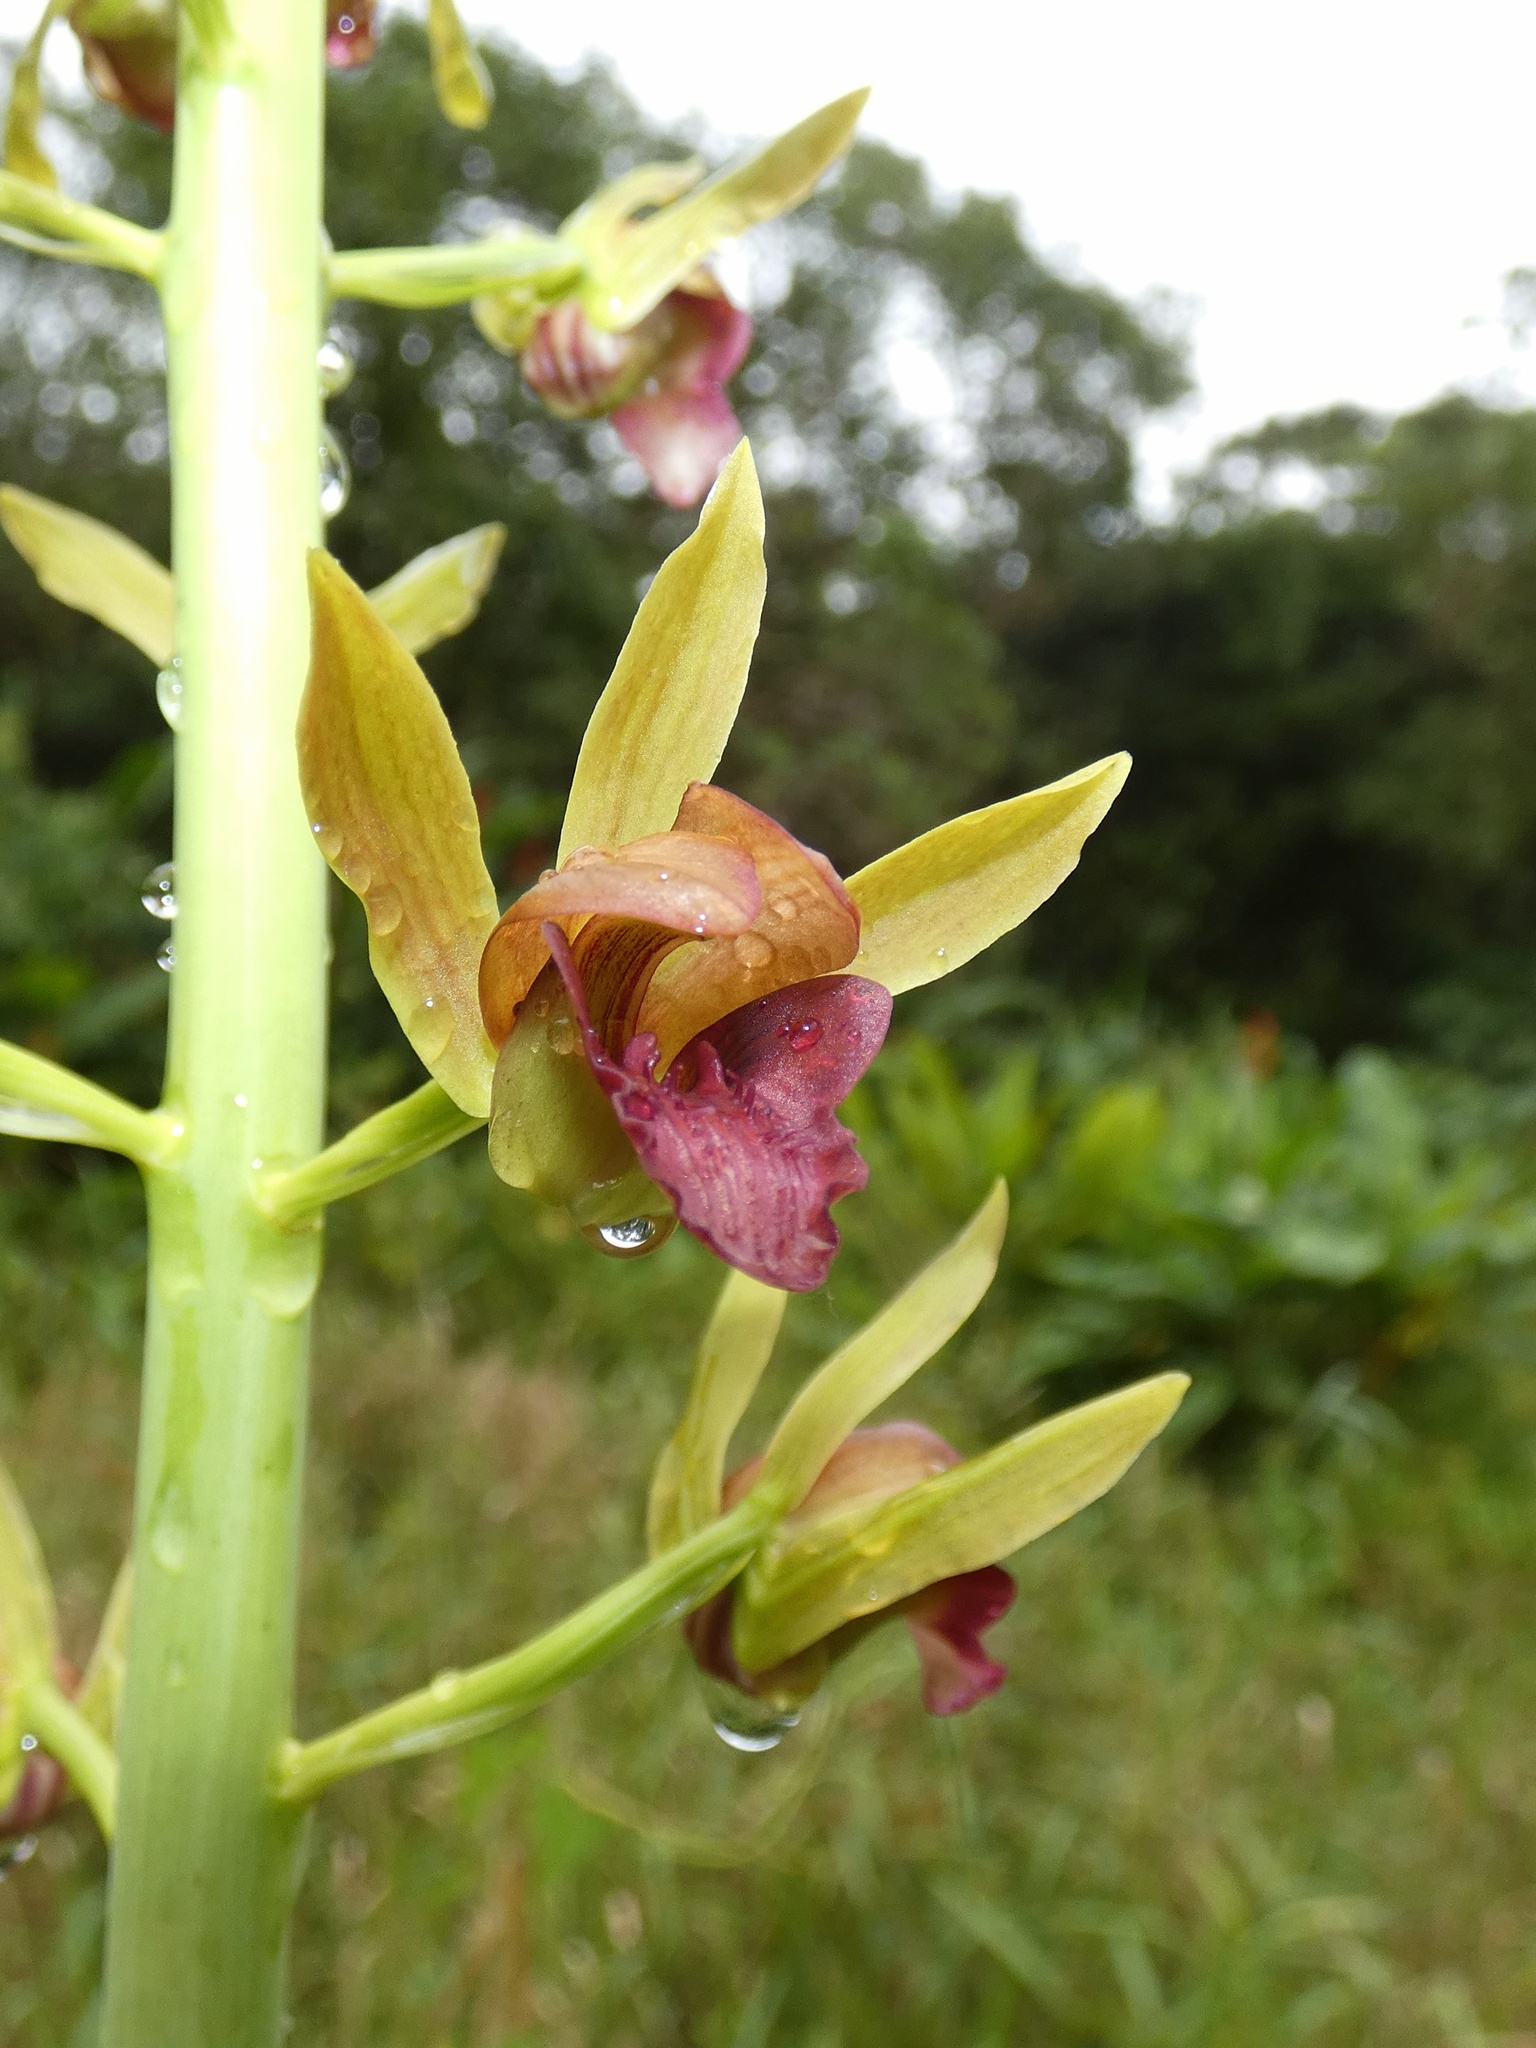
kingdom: Plantae
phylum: Tracheophyta
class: Liliopsida
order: Asparagales
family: Orchidaceae
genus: Eulophia
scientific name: Eulophia alta
